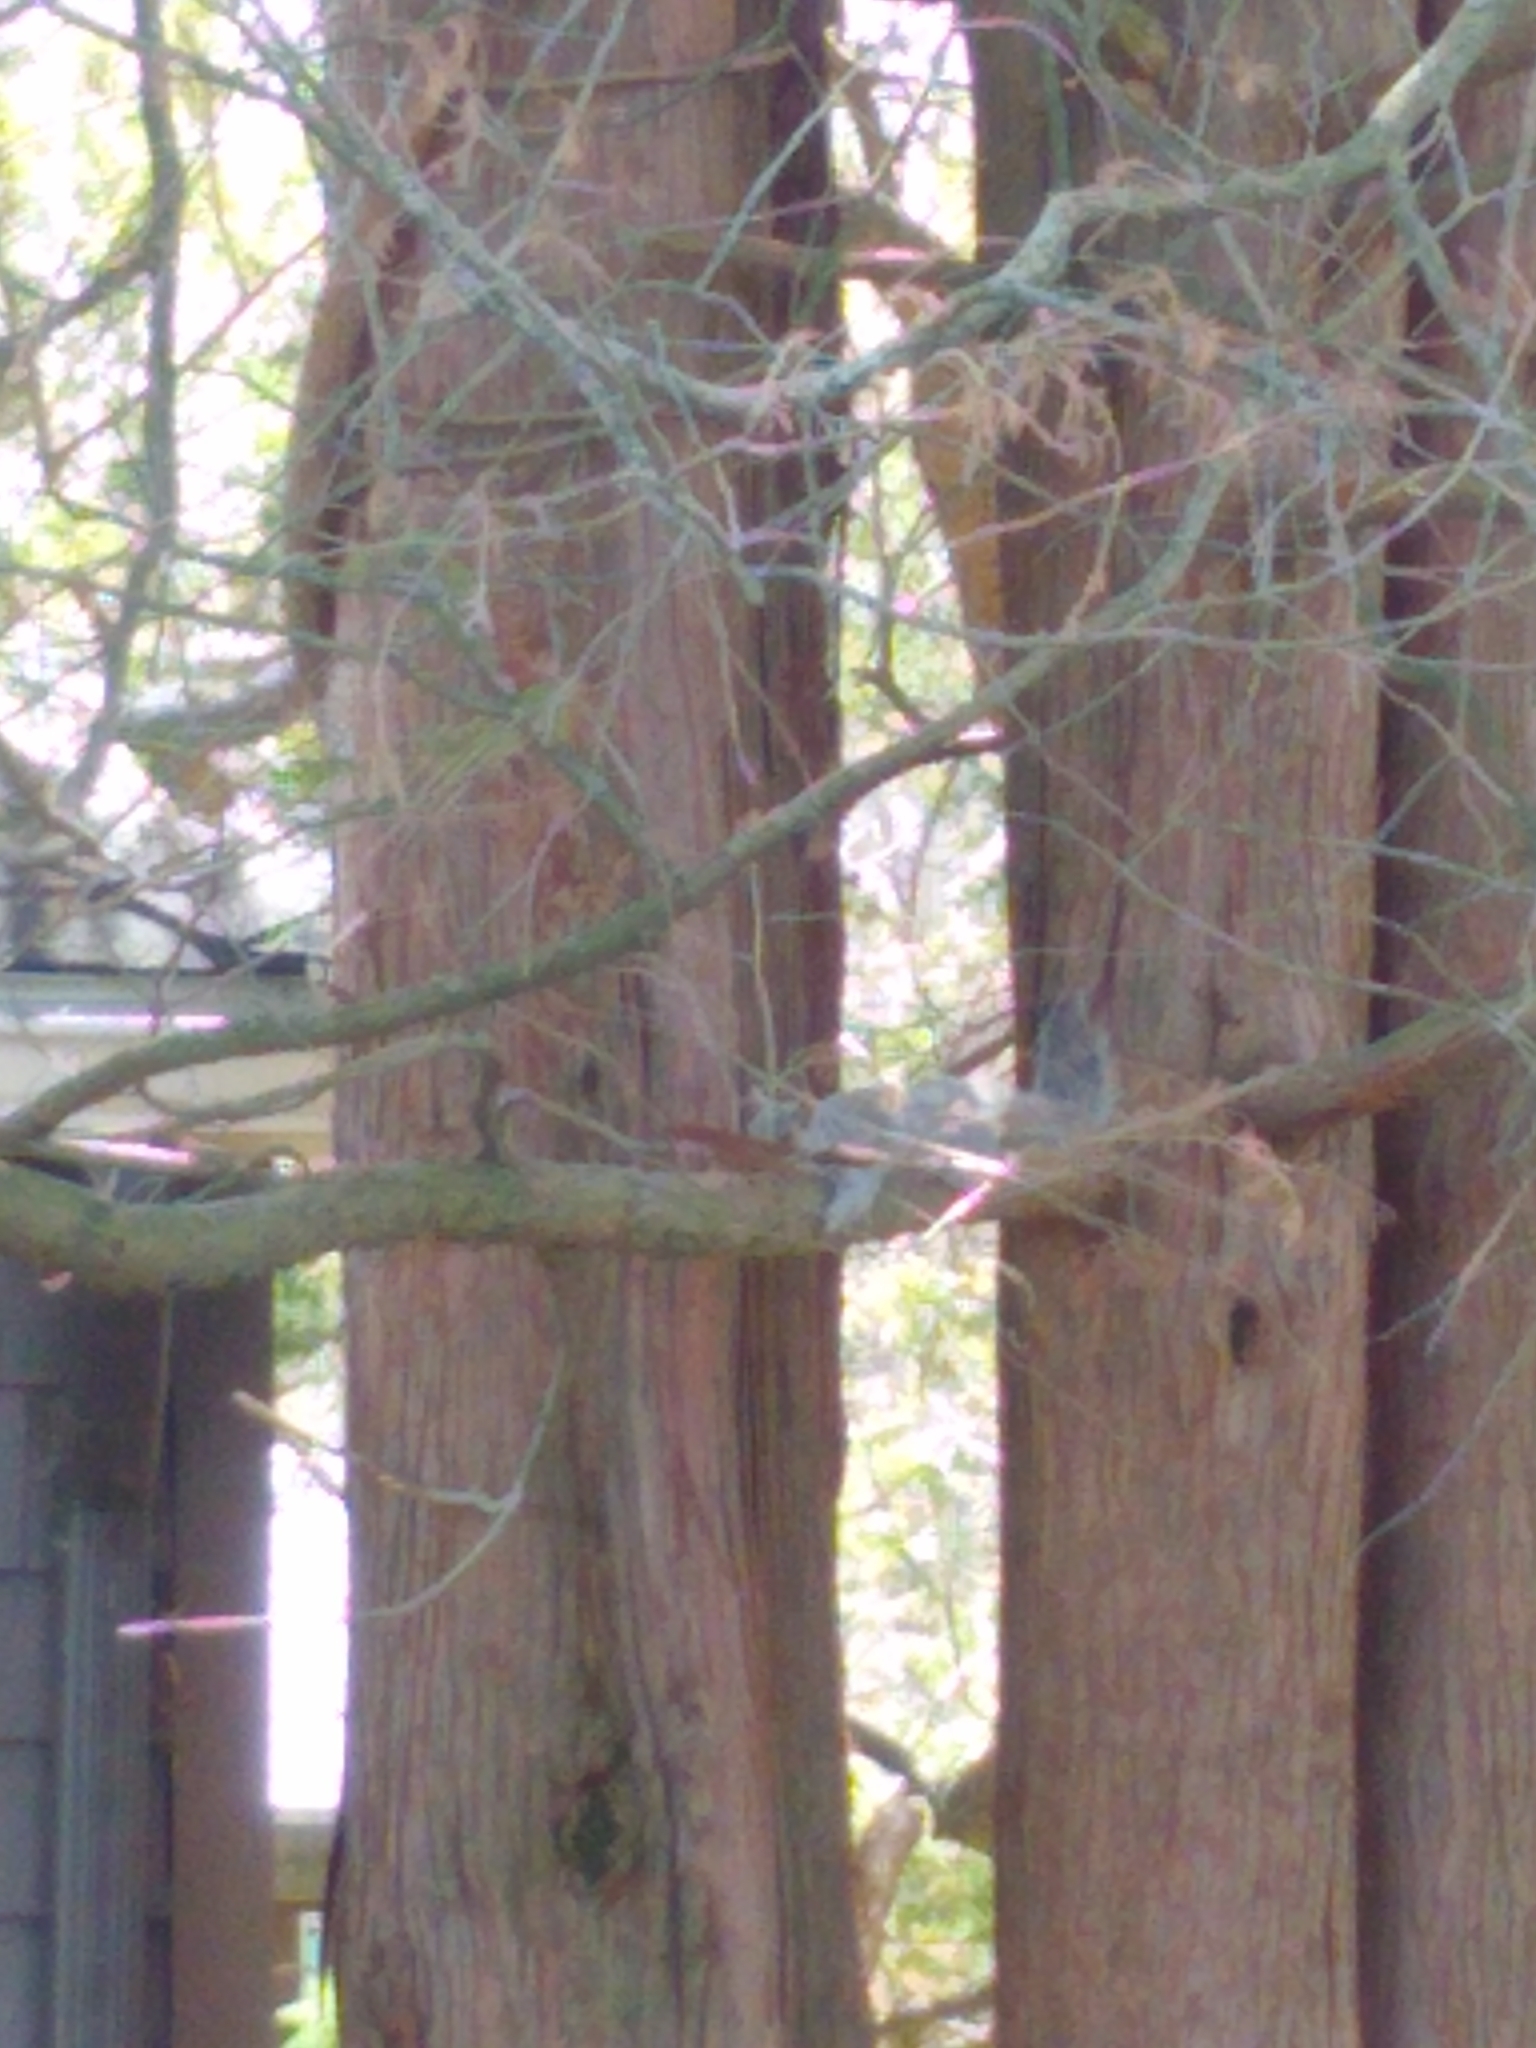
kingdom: Animalia
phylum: Chordata
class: Mammalia
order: Rodentia
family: Sciuridae
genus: Sciurus
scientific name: Sciurus carolinensis
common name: Eastern gray squirrel
